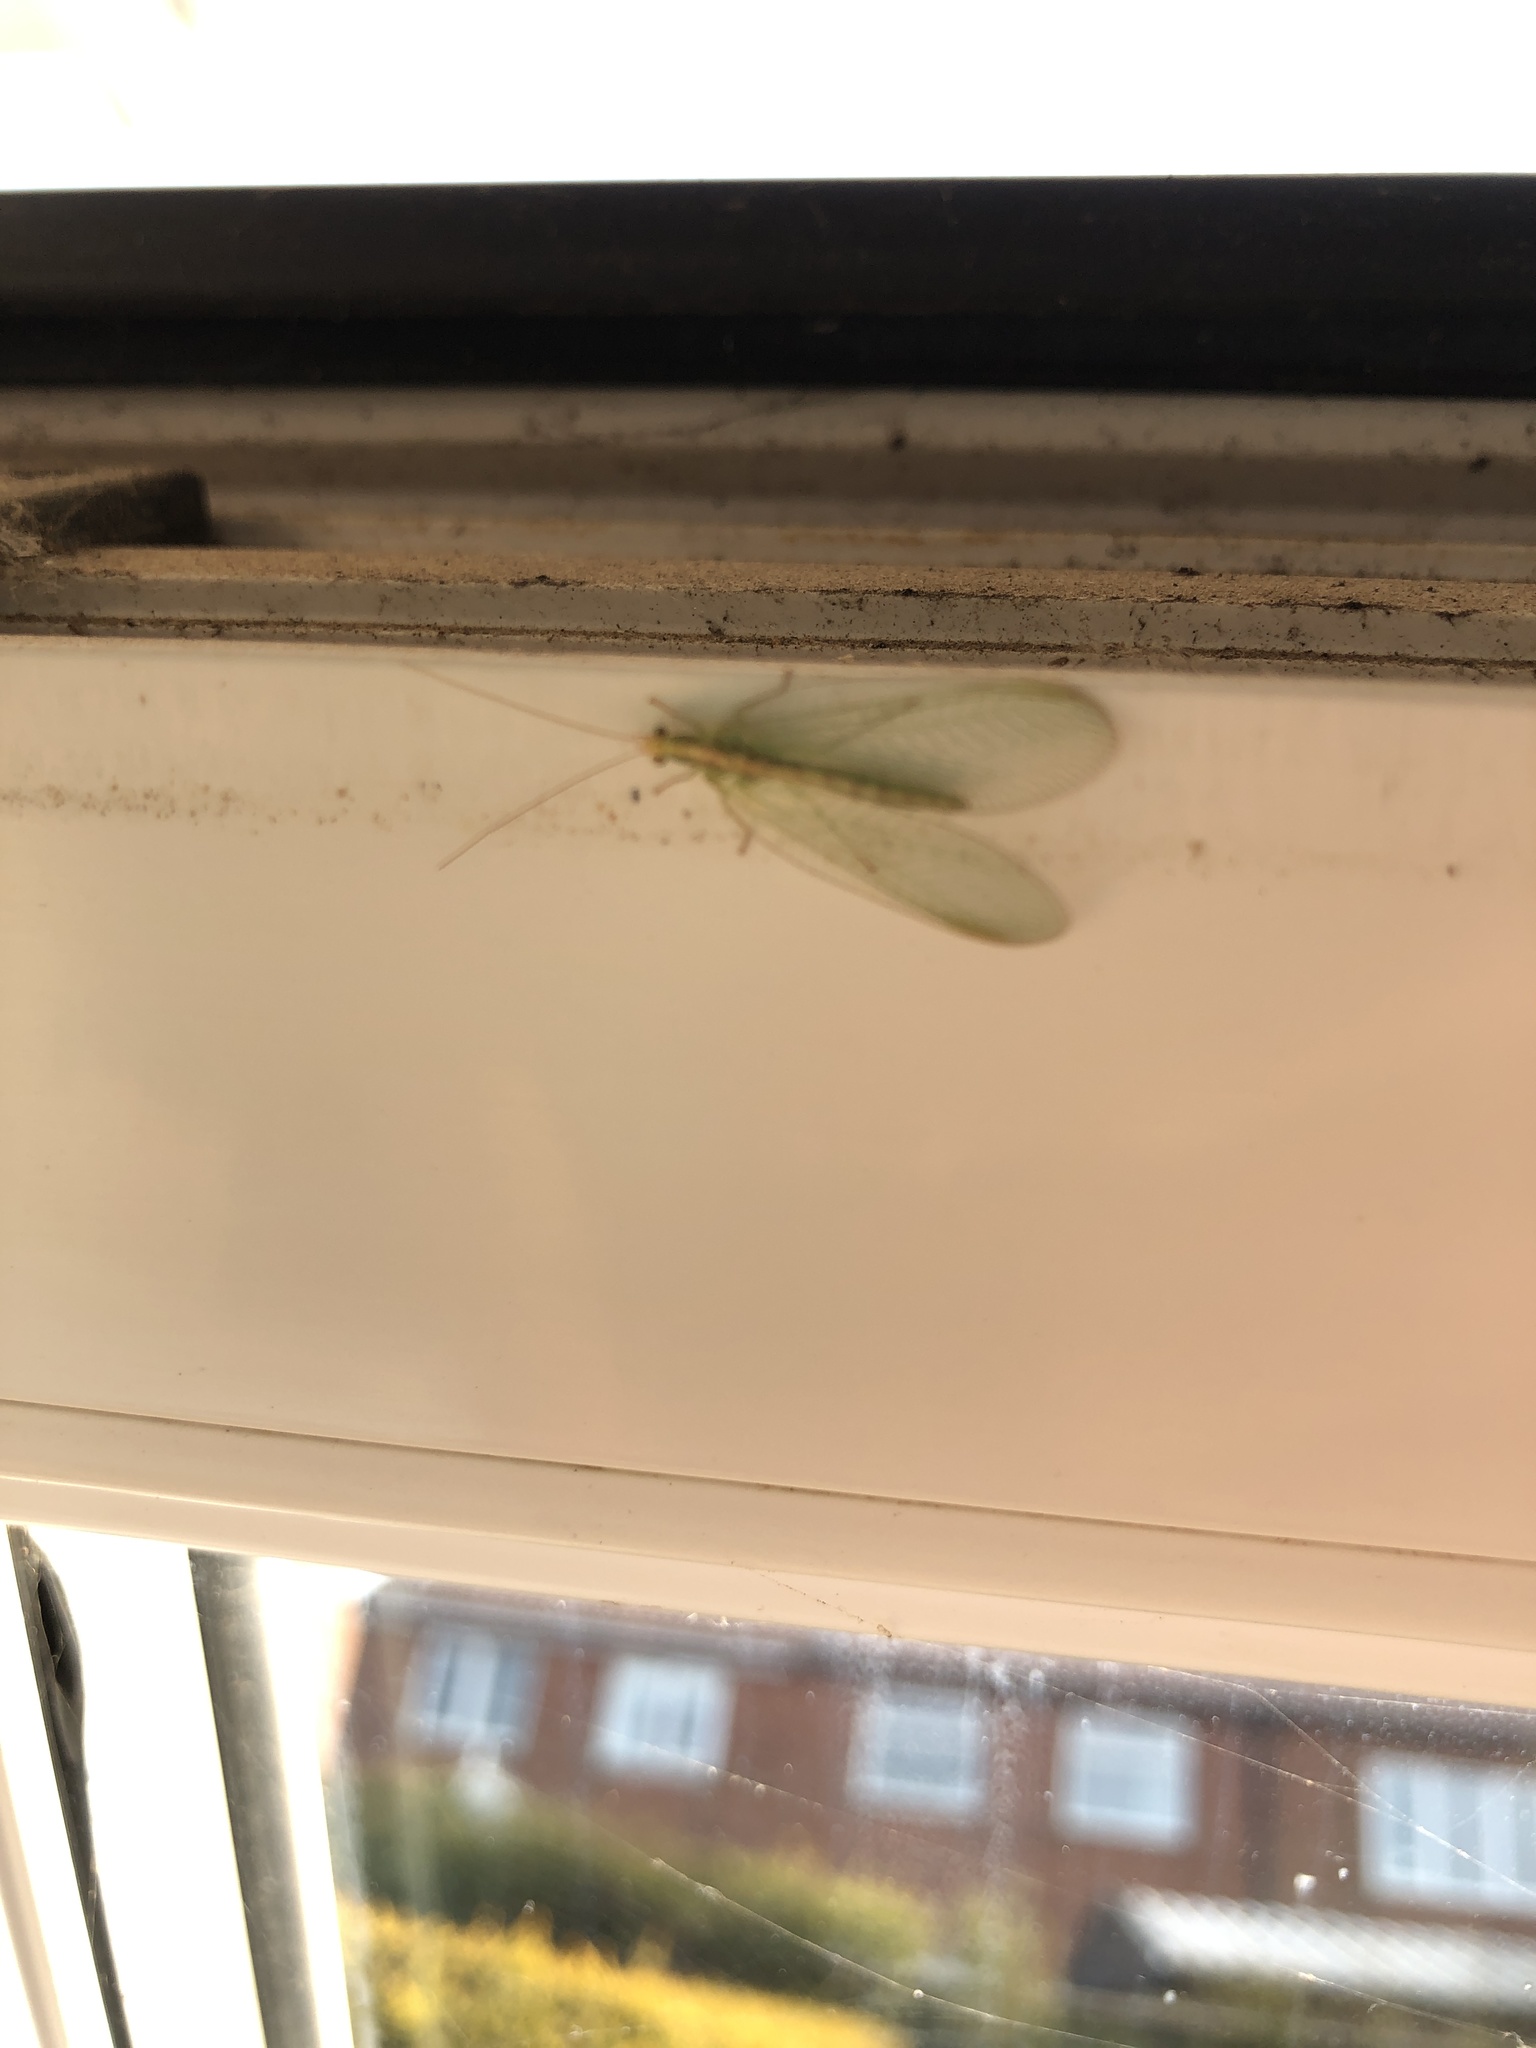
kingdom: Animalia
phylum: Arthropoda
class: Insecta
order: Neuroptera
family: Chrysopidae
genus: Chrysoperla
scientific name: Chrysoperla
